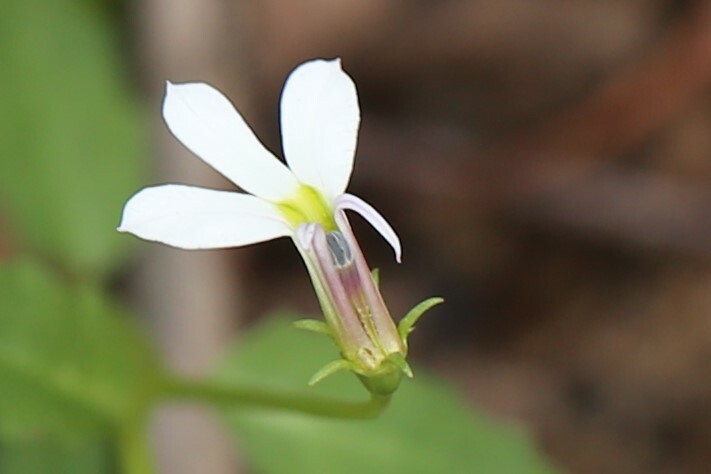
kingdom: Plantae
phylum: Tracheophyta
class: Magnoliopsida
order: Asterales
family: Campanulaceae
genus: Lobelia
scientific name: Lobelia purpurascens
